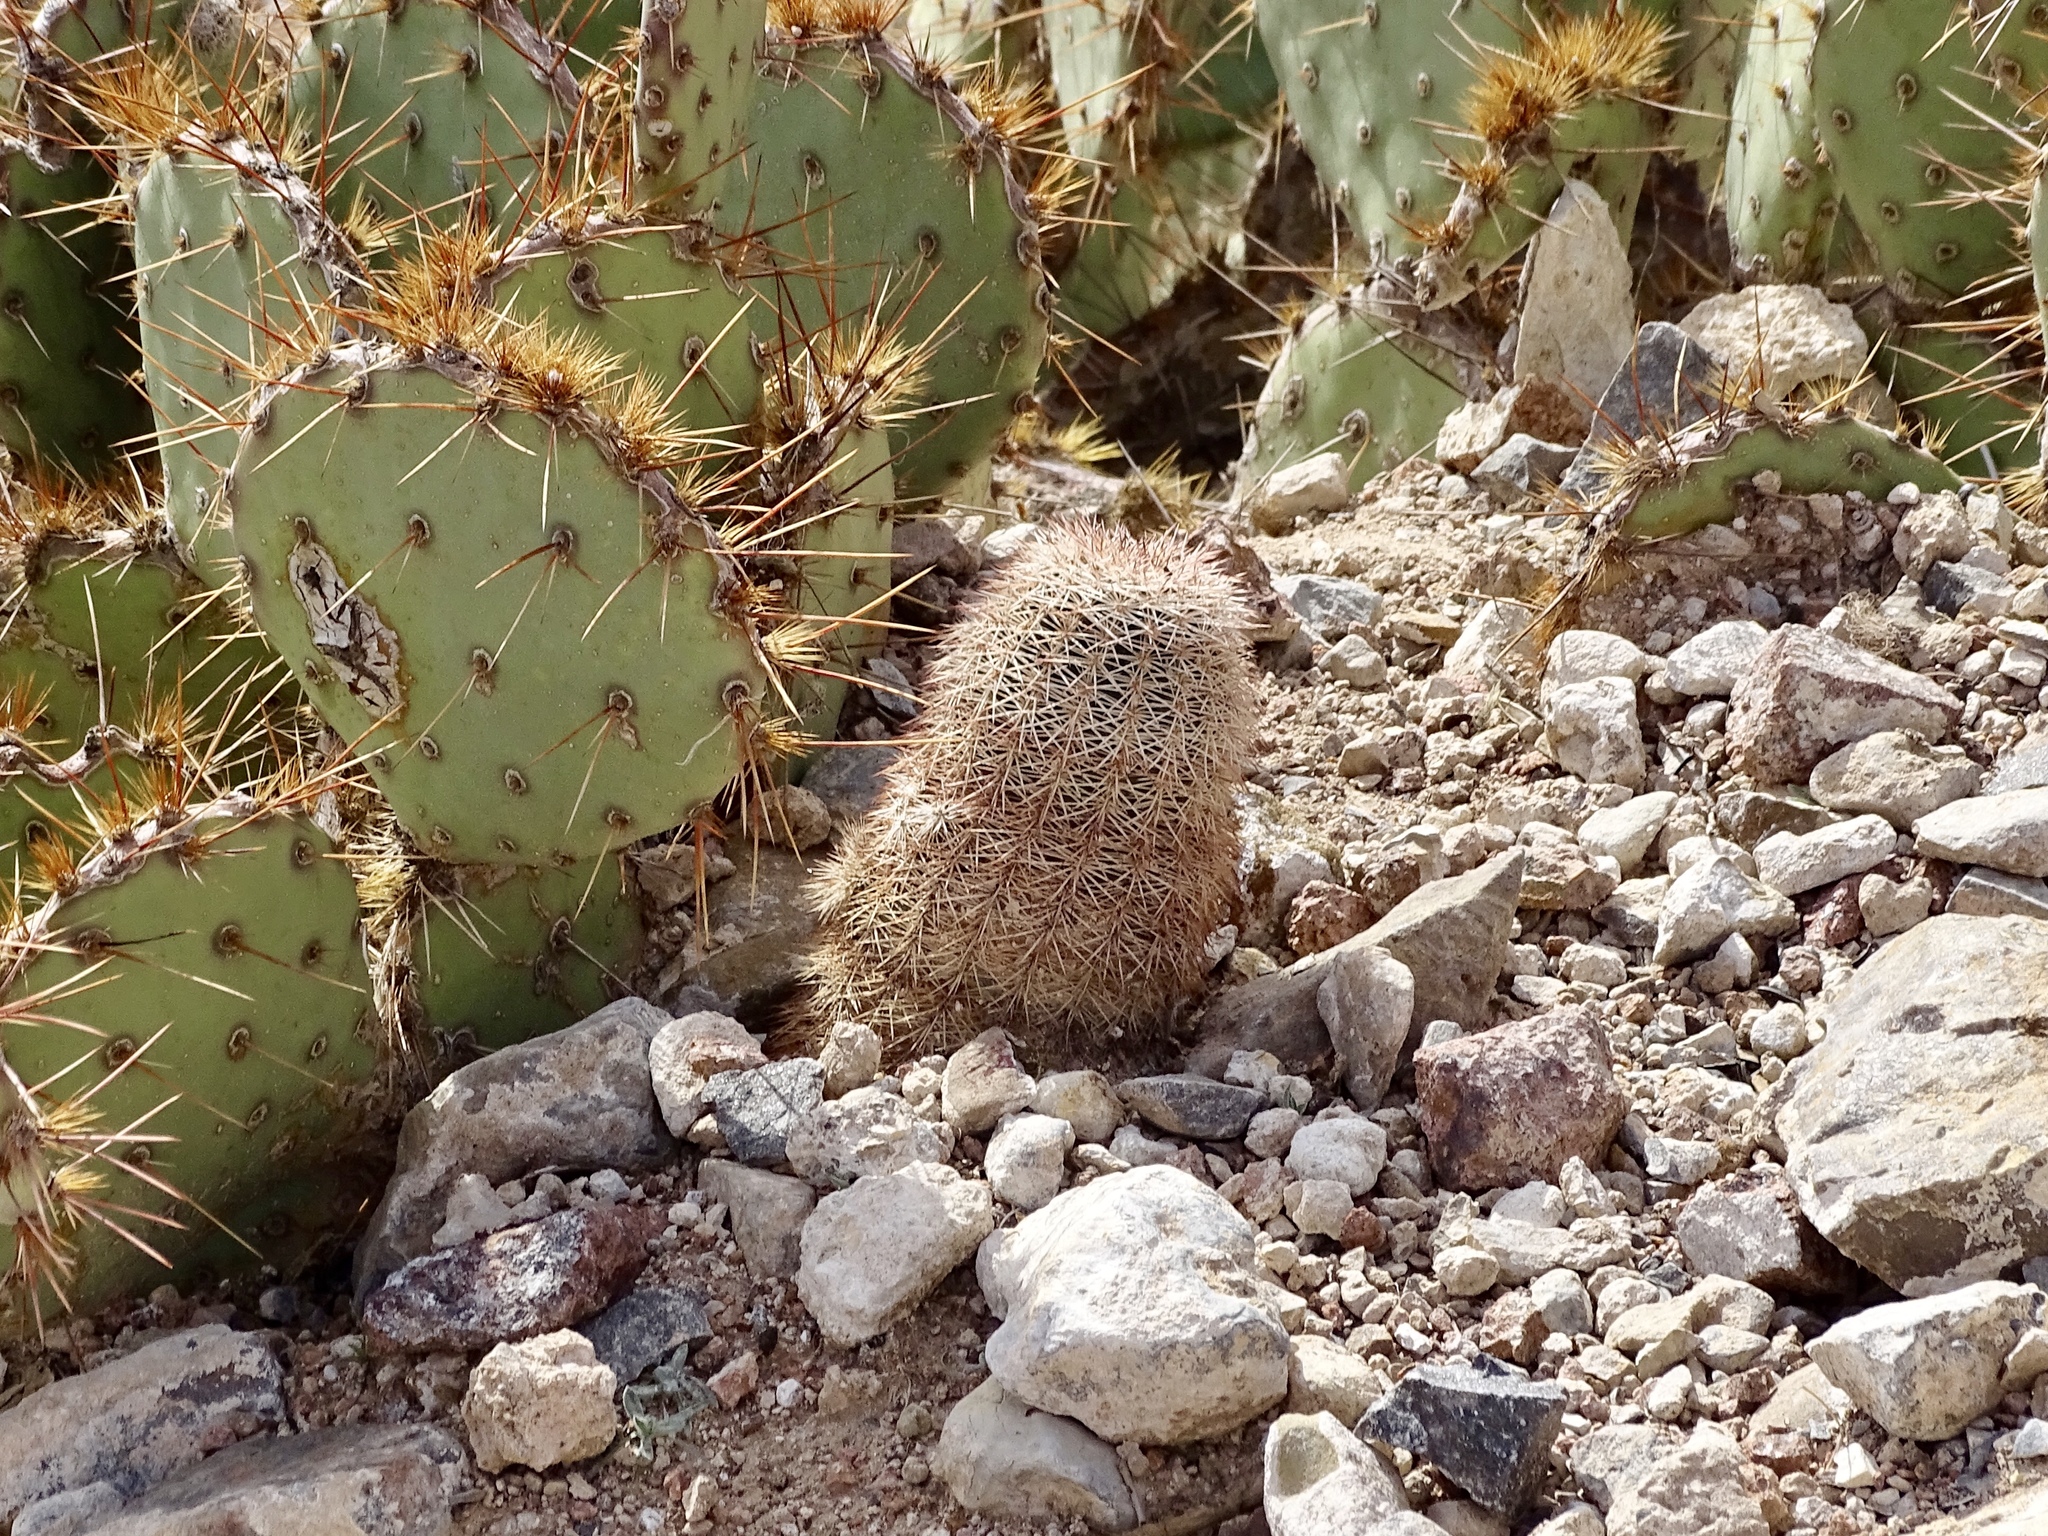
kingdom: Plantae
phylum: Tracheophyta
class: Magnoliopsida
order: Caryophyllales
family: Cactaceae
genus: Echinocereus
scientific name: Echinocereus dasyacanthus
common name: Spiny hedgehog cactus
